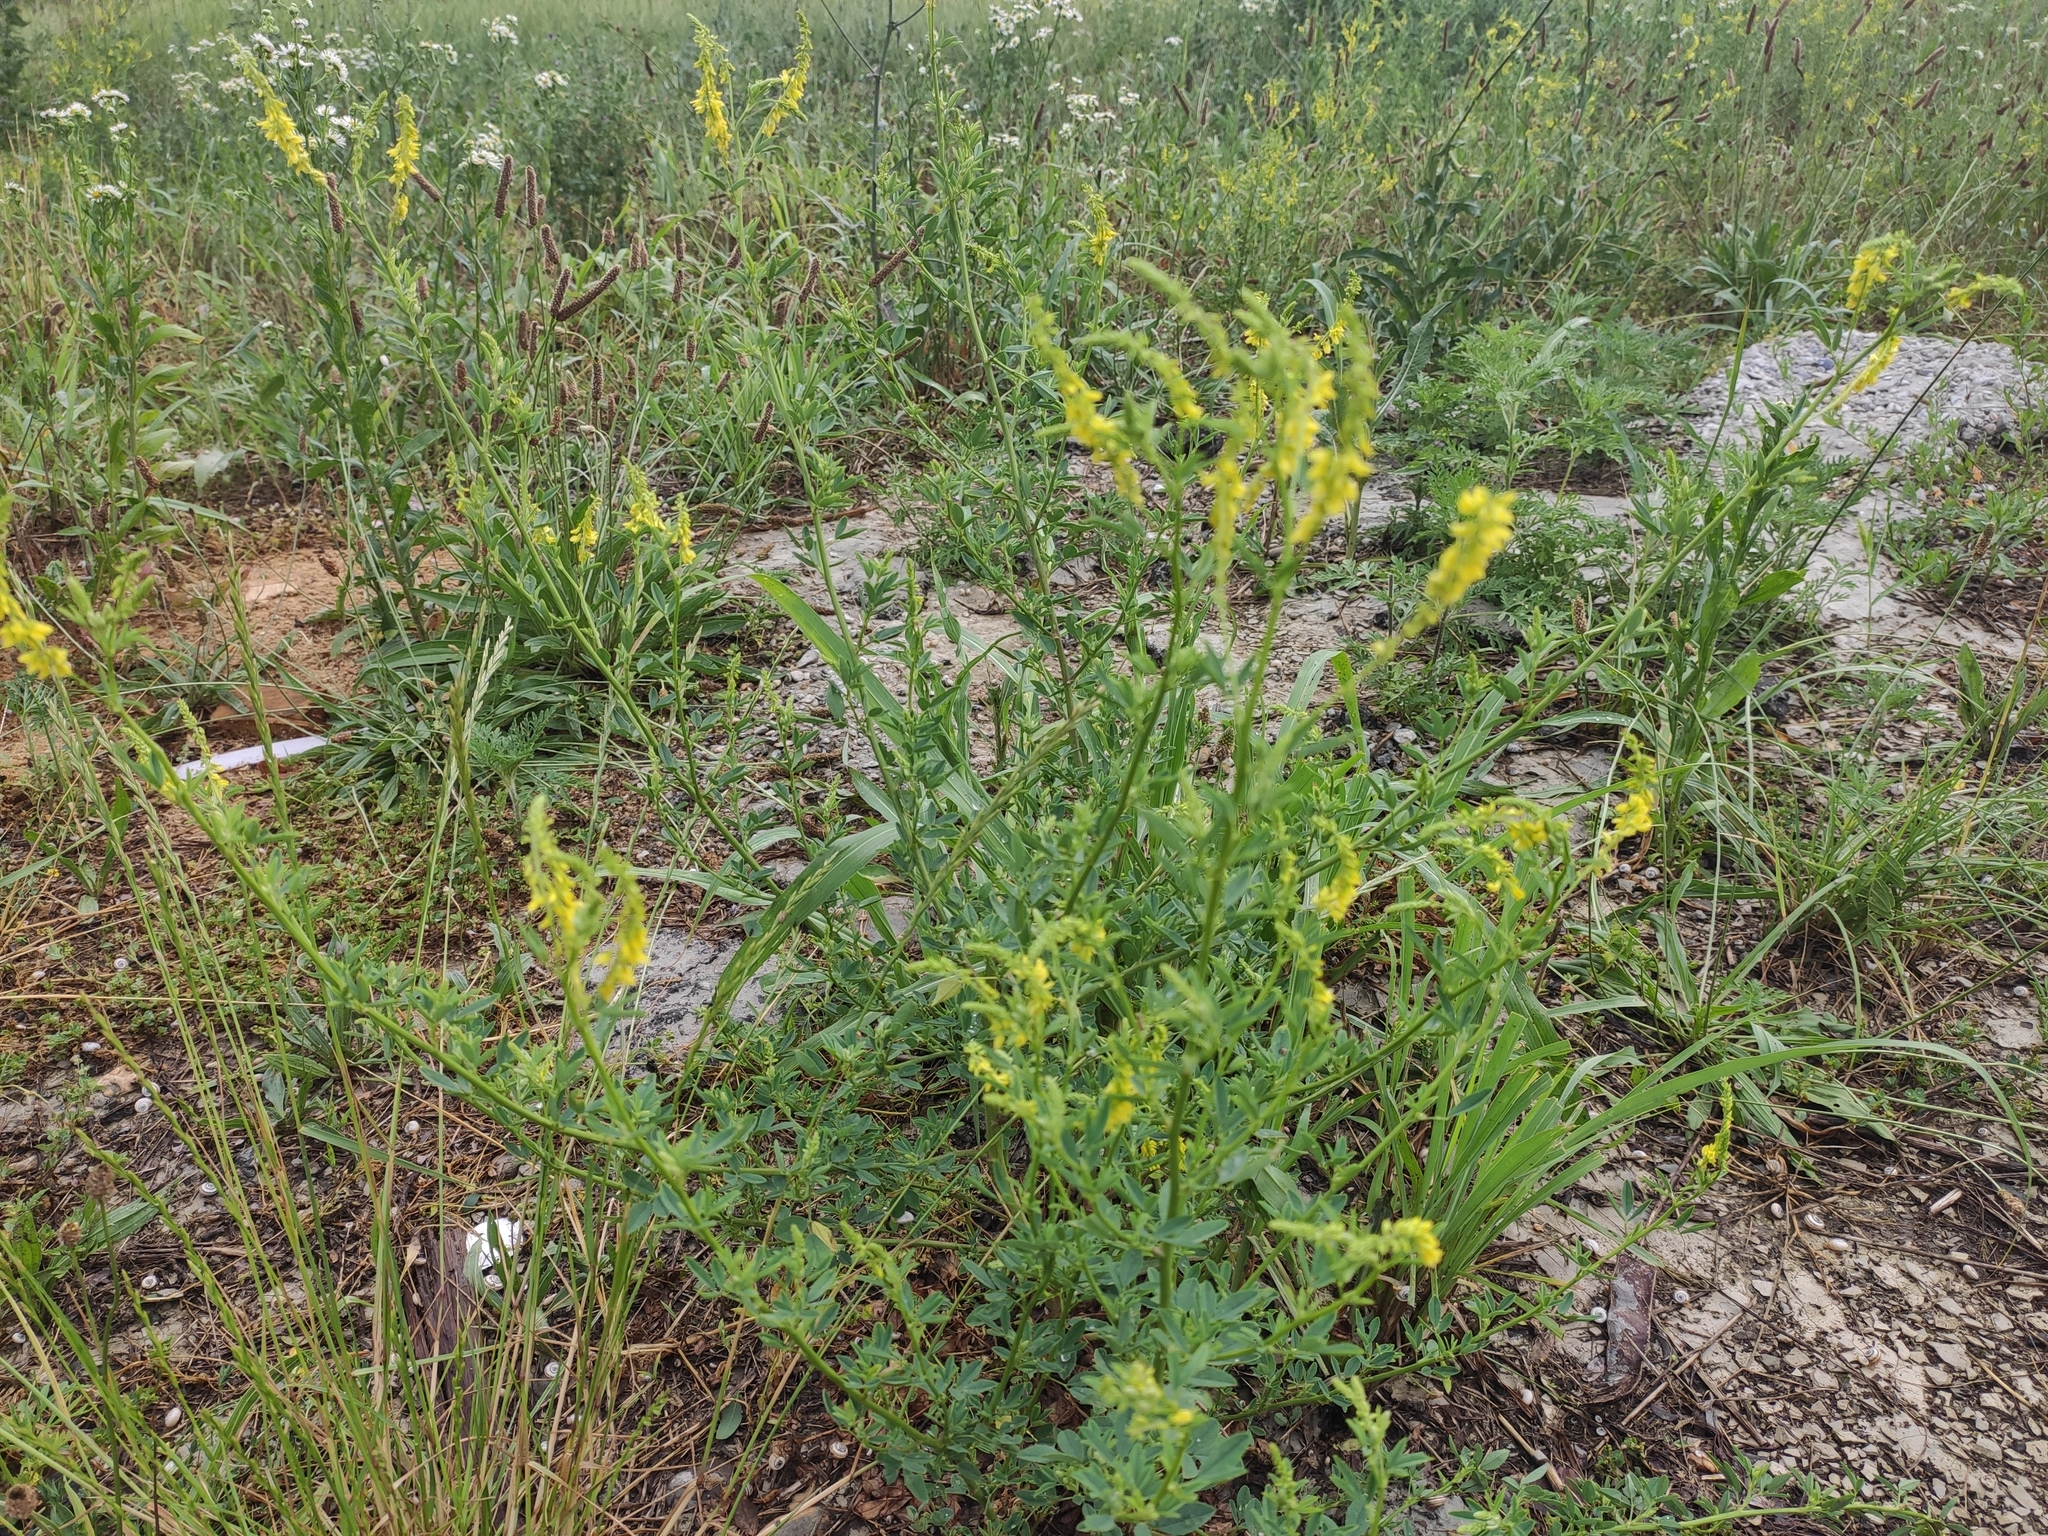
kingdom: Plantae
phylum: Tracheophyta
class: Magnoliopsida
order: Fabales
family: Fabaceae
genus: Melilotus
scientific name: Melilotus officinalis
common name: Sweetclover
